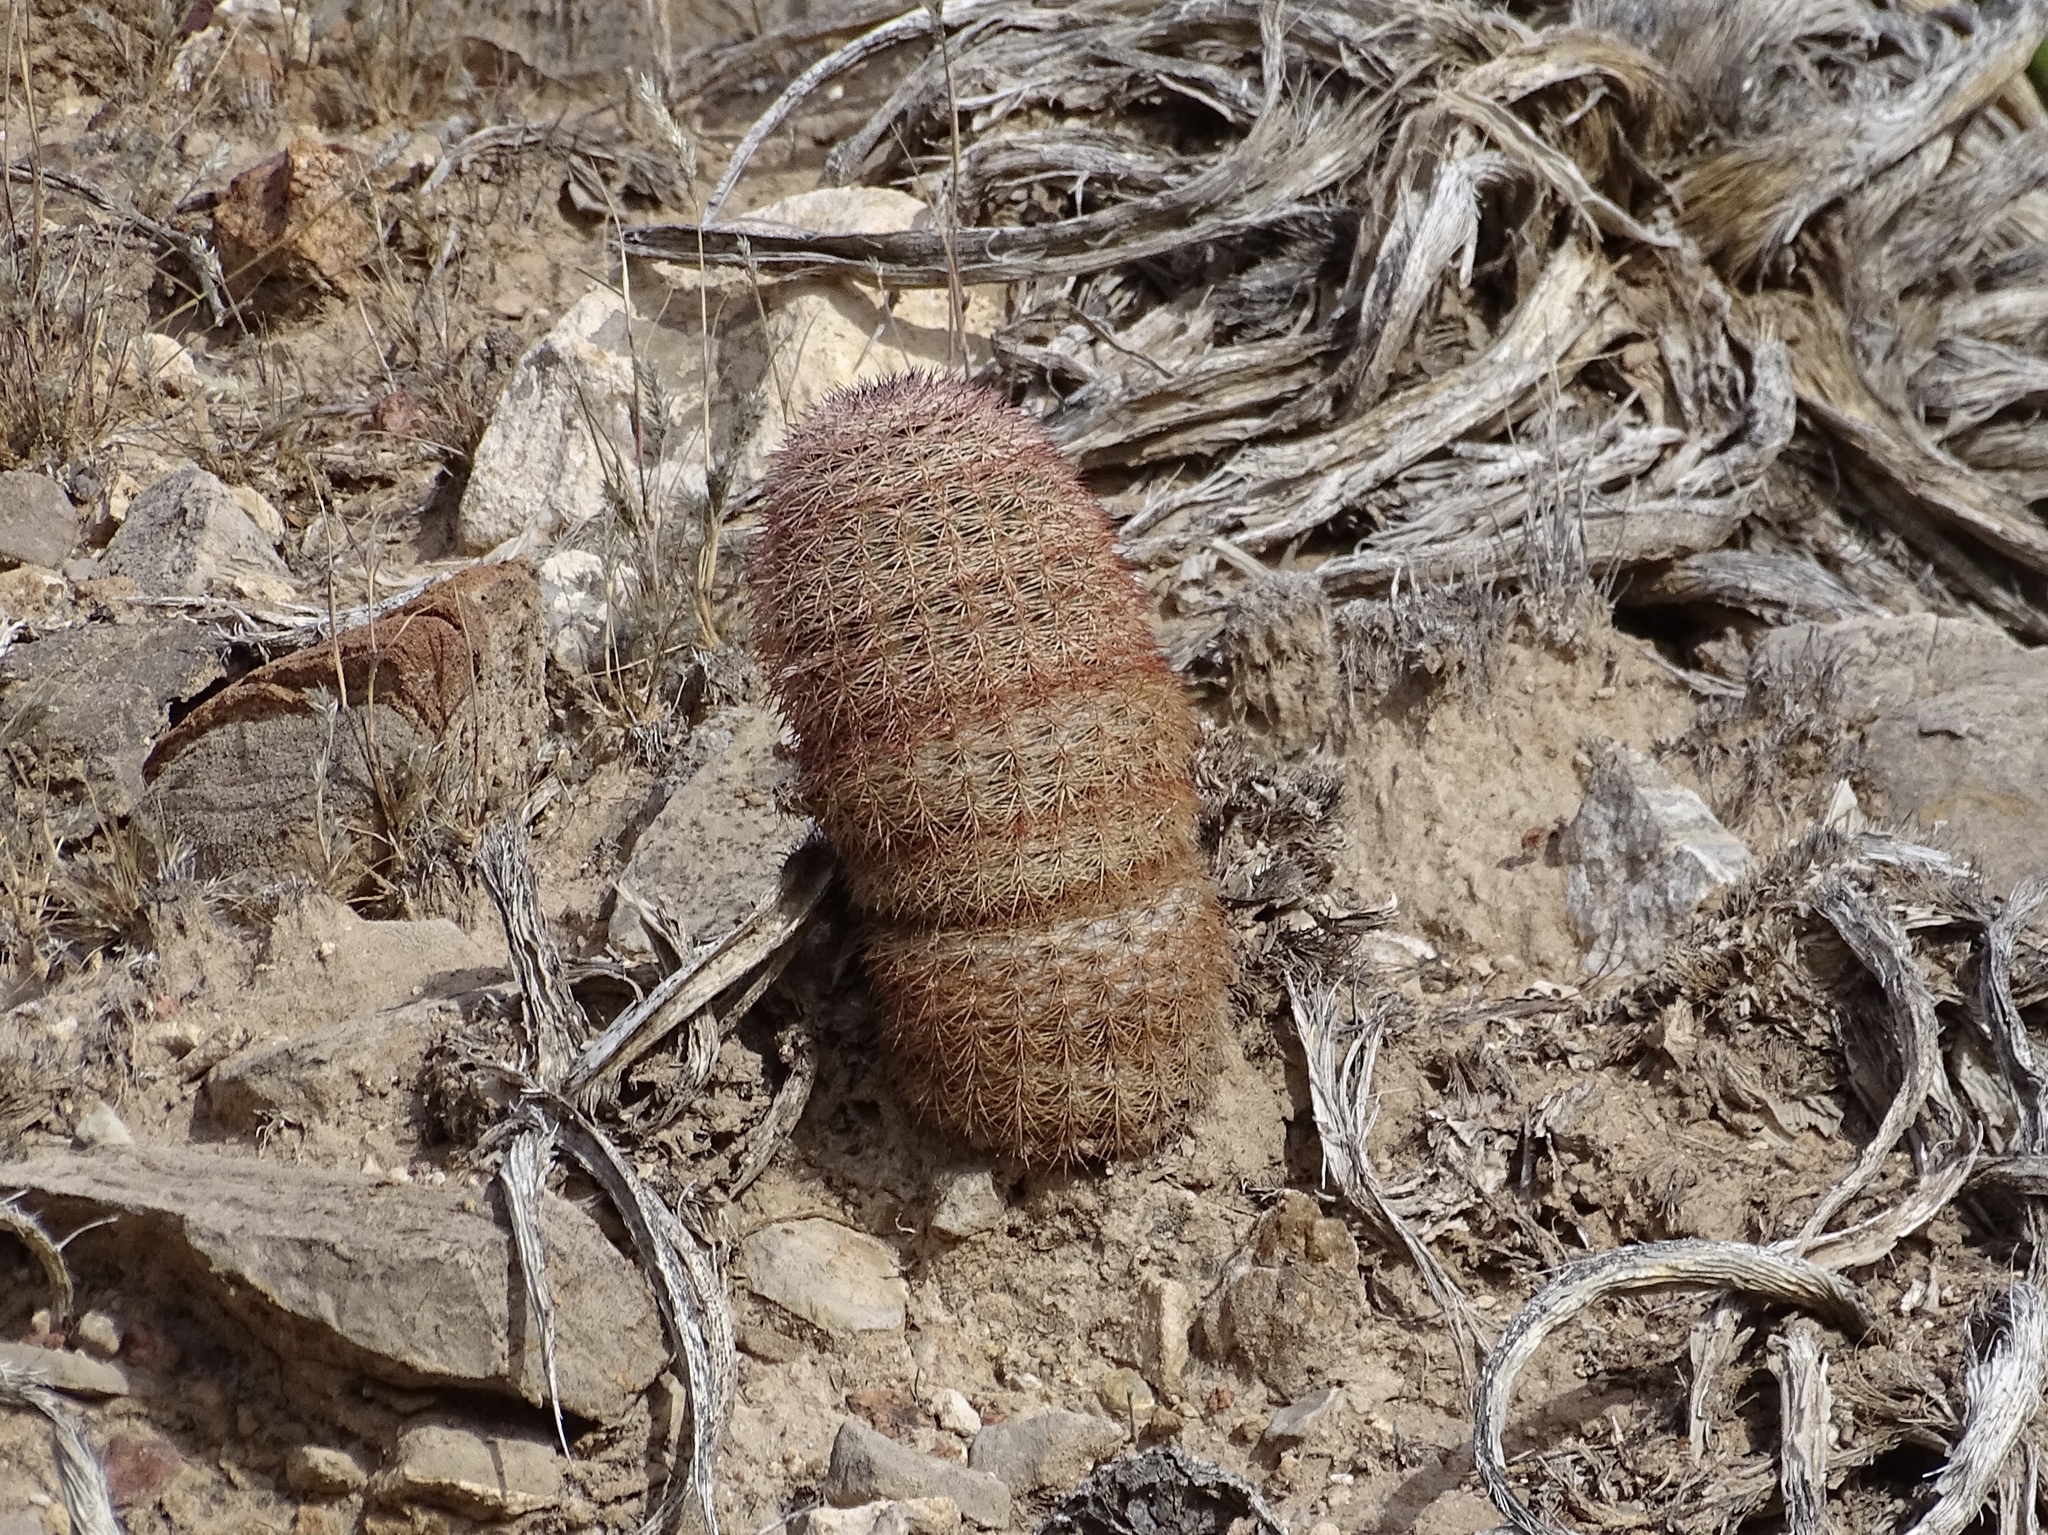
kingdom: Plantae
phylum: Tracheophyta
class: Magnoliopsida
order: Caryophyllales
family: Cactaceae
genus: Echinocereus
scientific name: Echinocereus dasyacanthus
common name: Spiny hedgehog cactus
